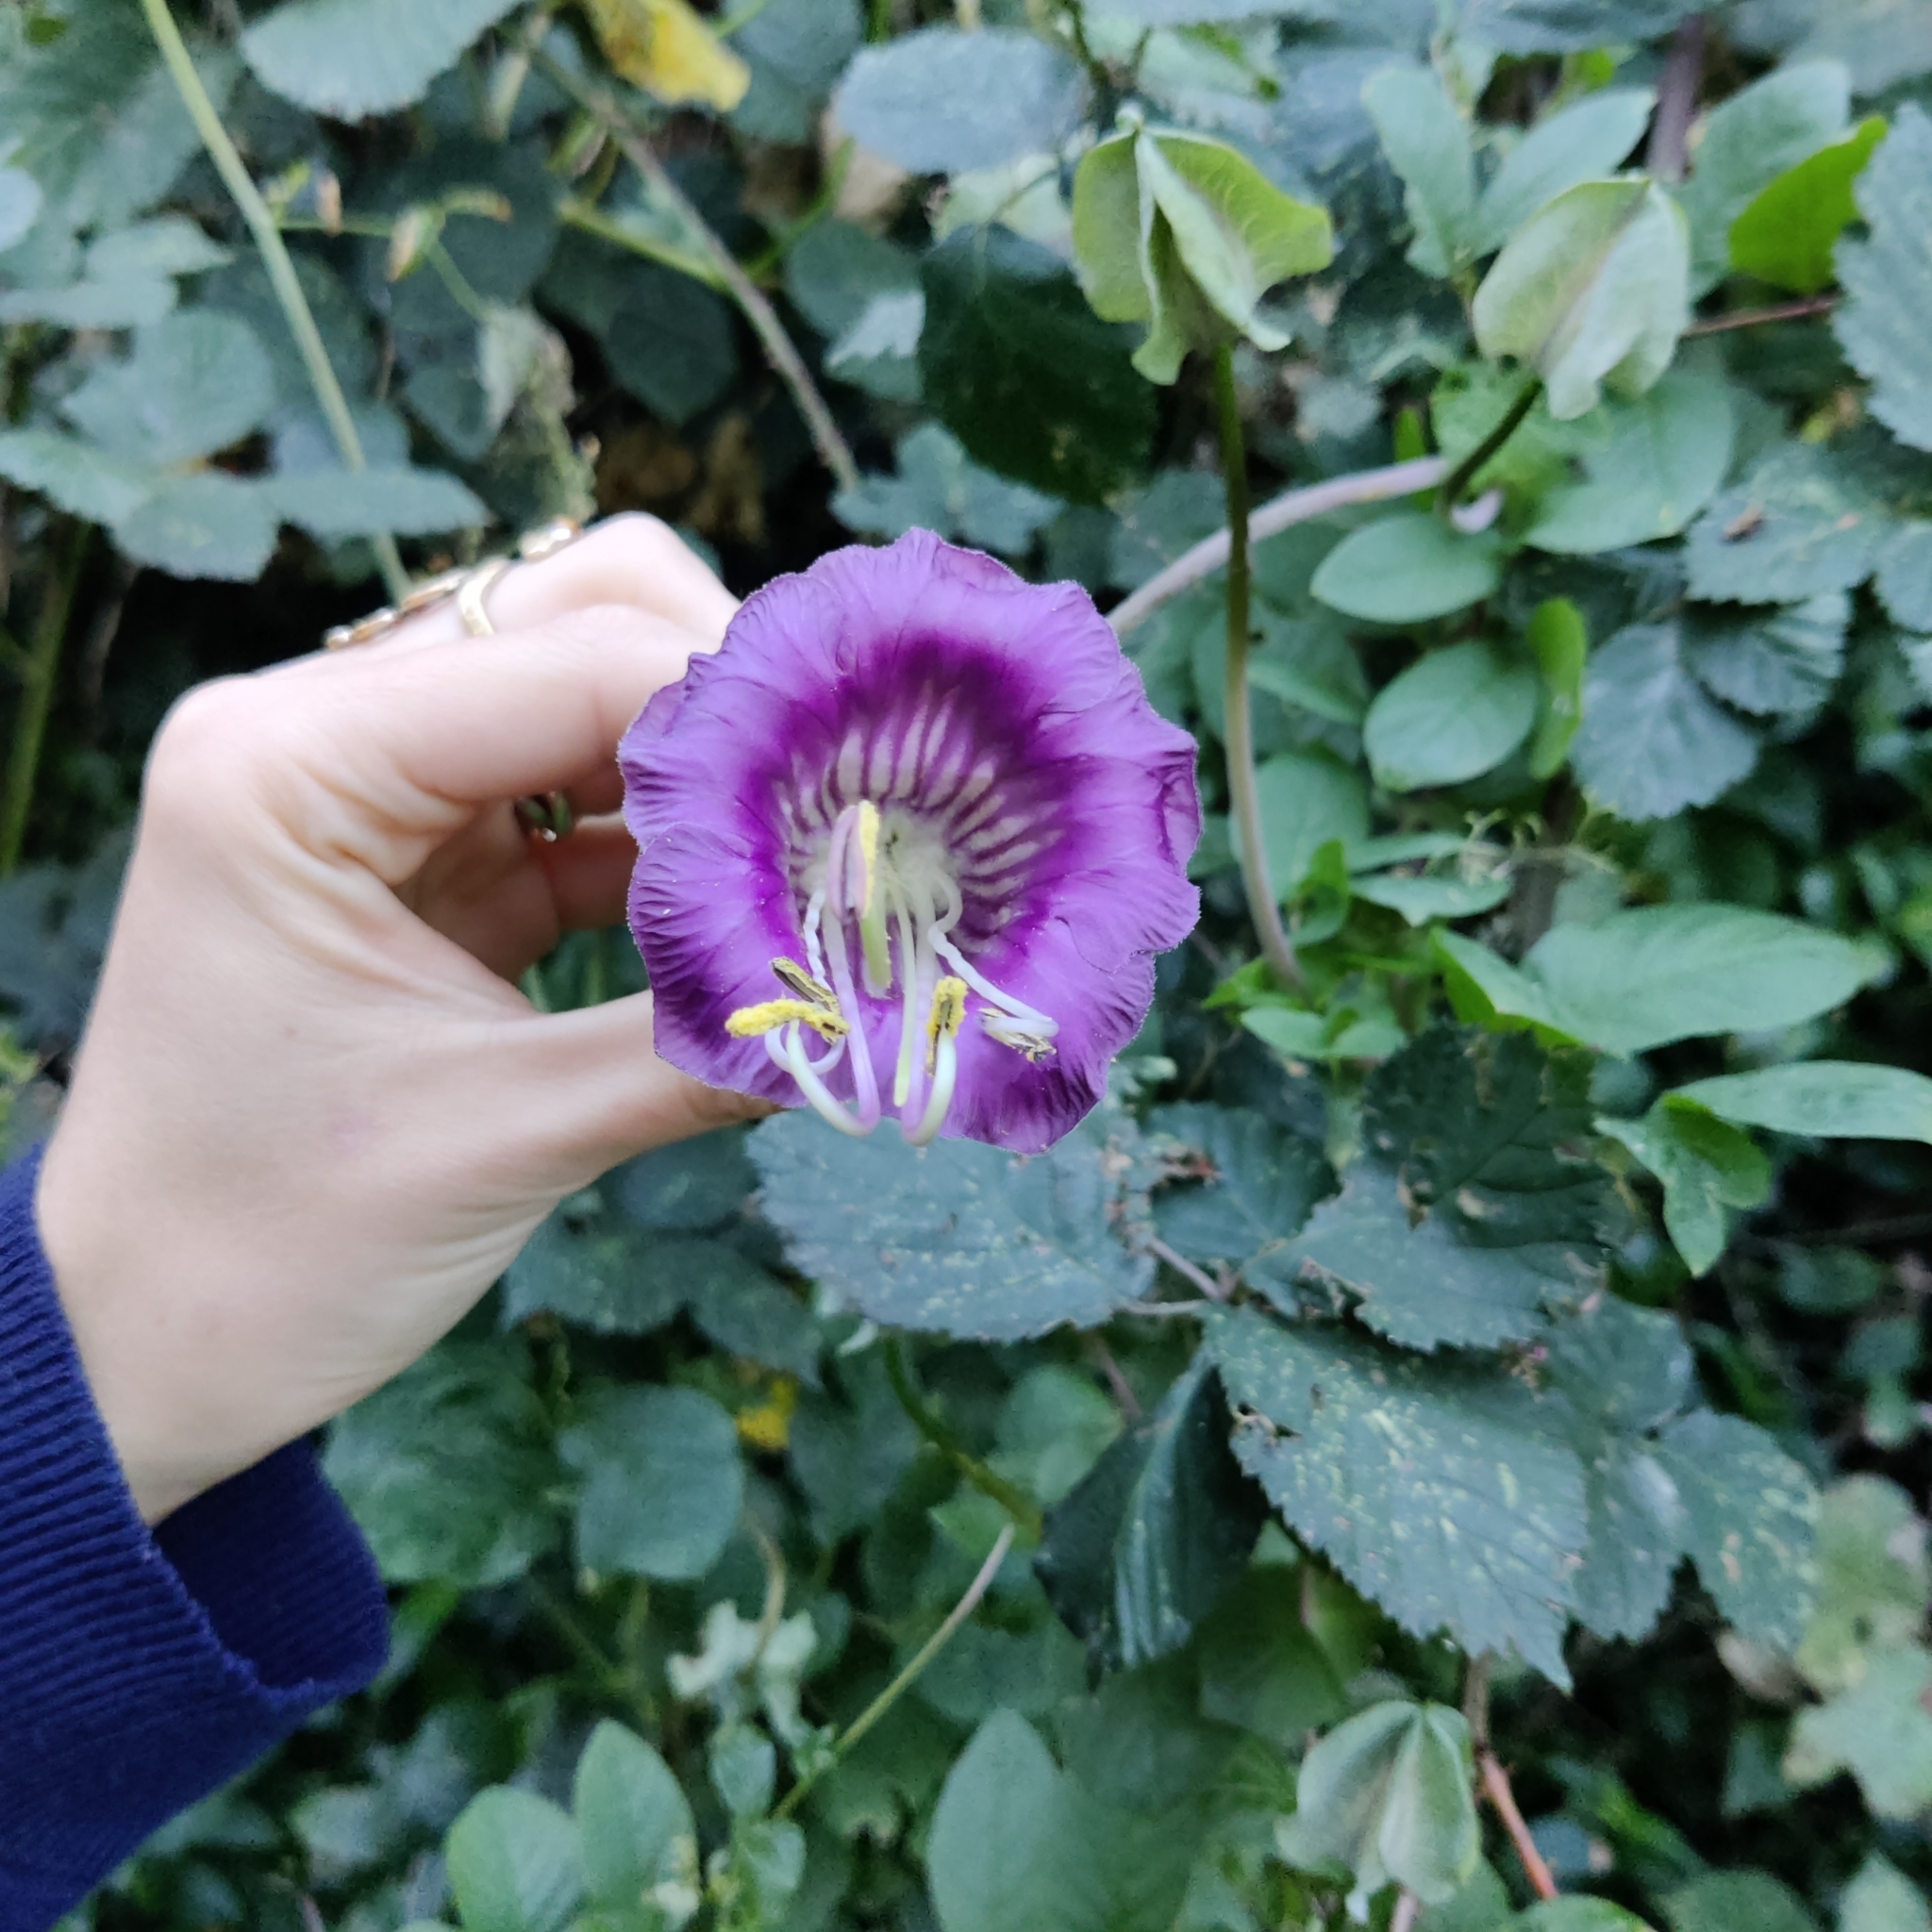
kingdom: Plantae
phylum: Tracheophyta
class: Magnoliopsida
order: Ericales
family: Polemoniaceae
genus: Cobaea
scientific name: Cobaea scandens
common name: Cup-and-saucer-vine
